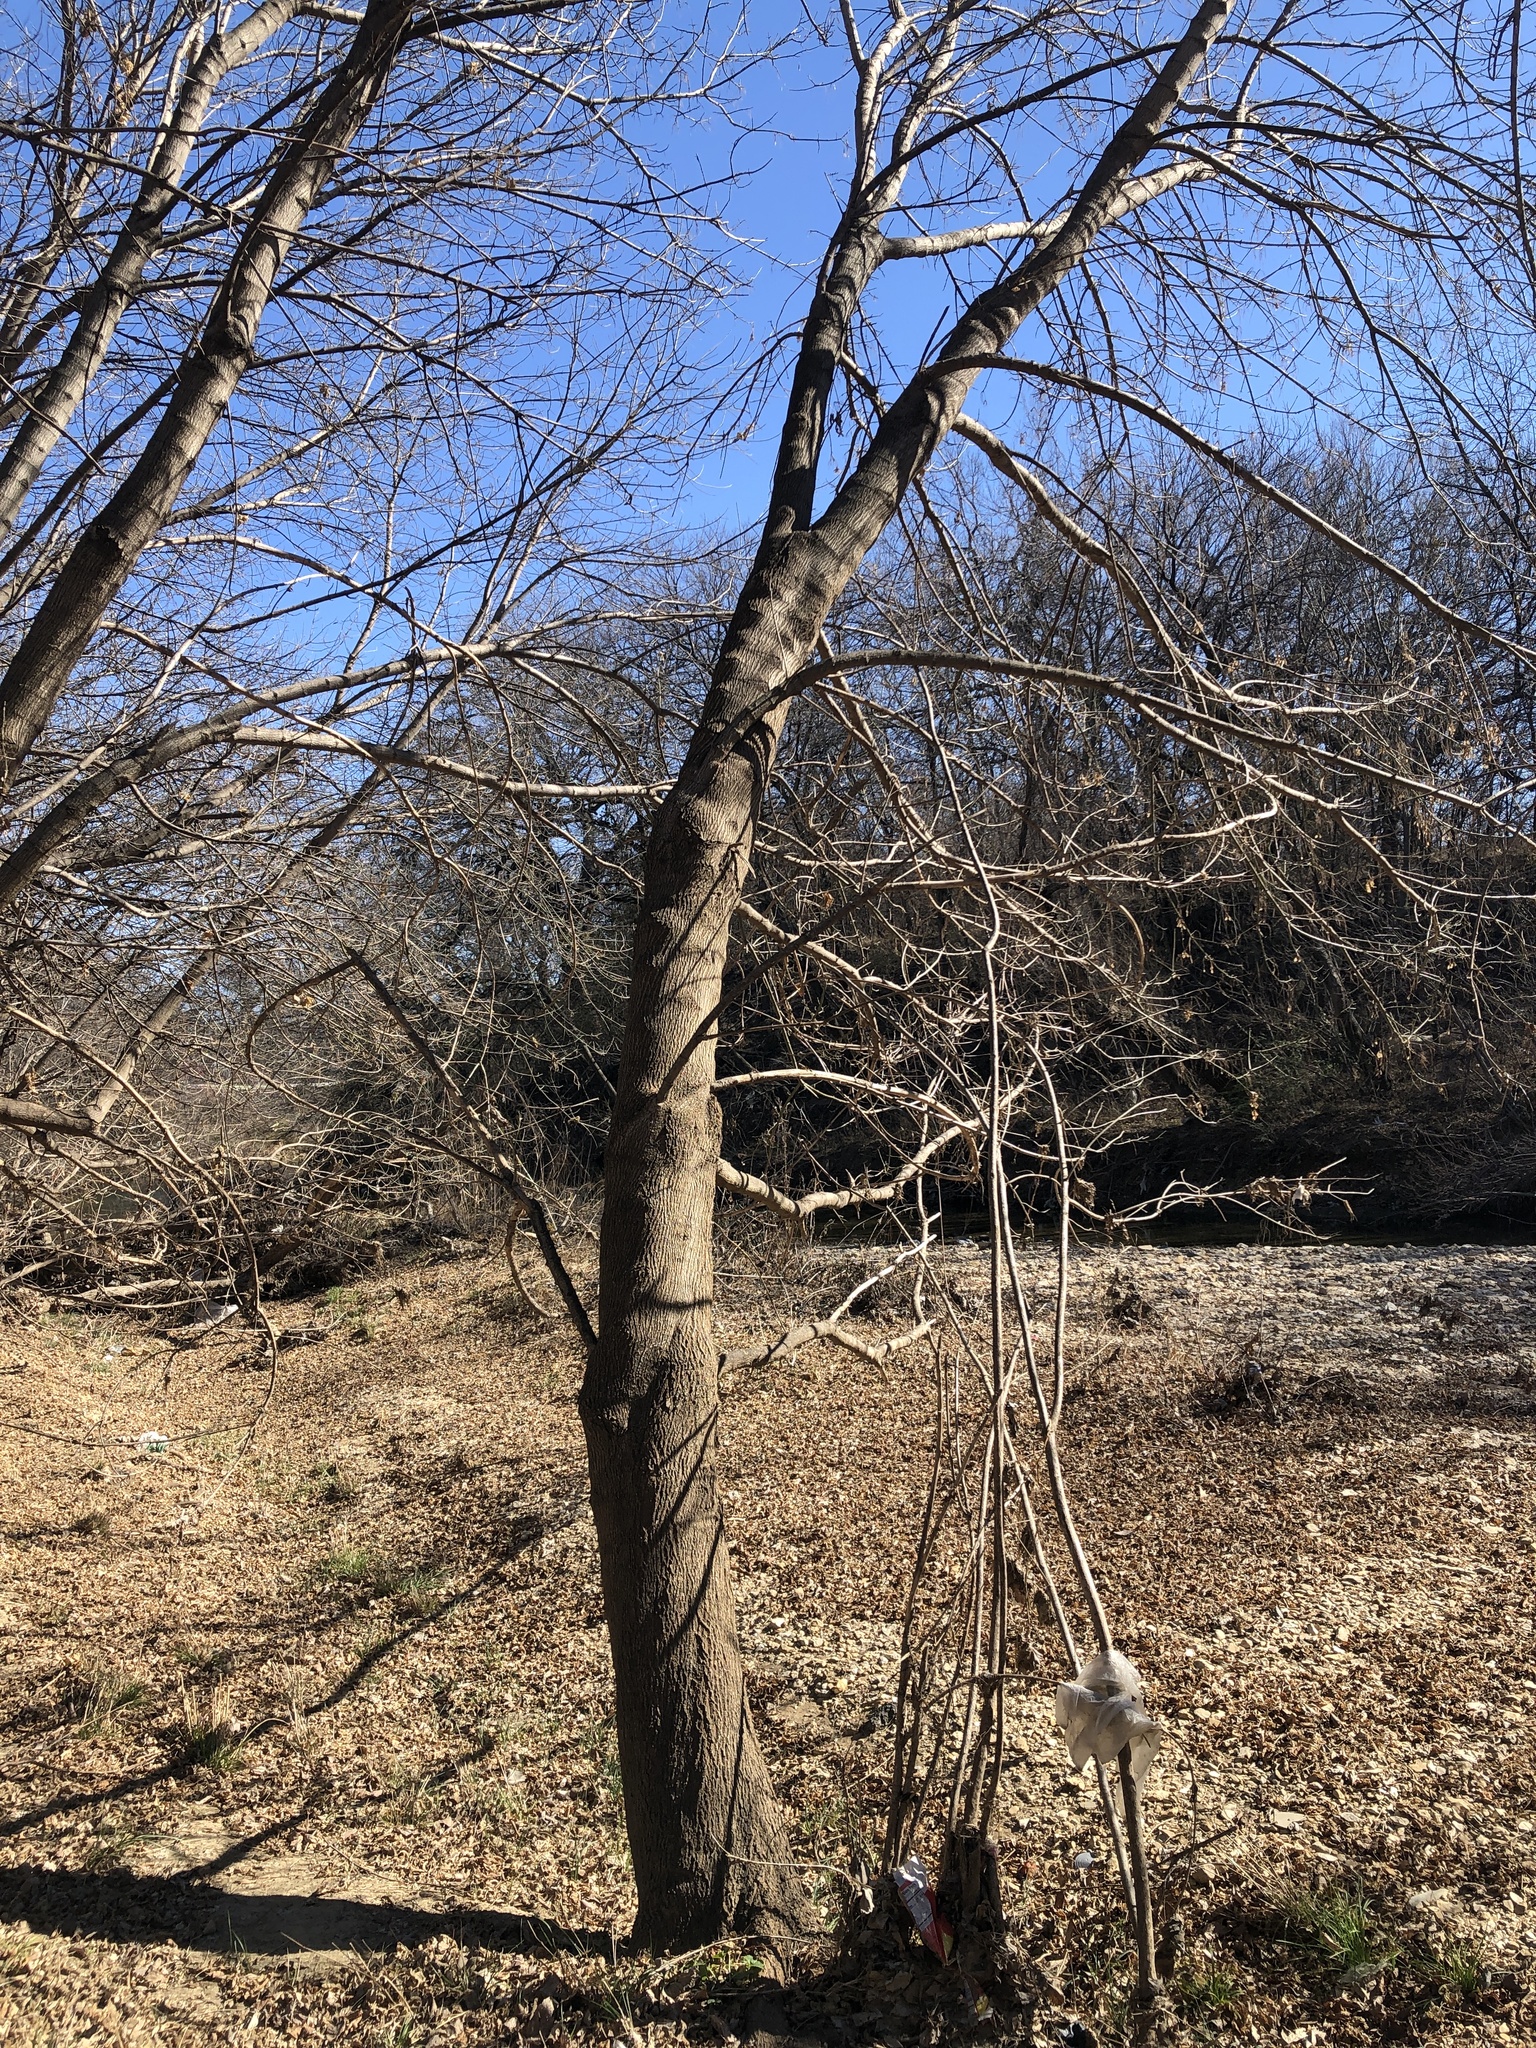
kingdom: Plantae
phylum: Tracheophyta
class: Magnoliopsida
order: Sapindales
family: Sapindaceae
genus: Acer
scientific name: Acer negundo
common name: Ashleaf maple
